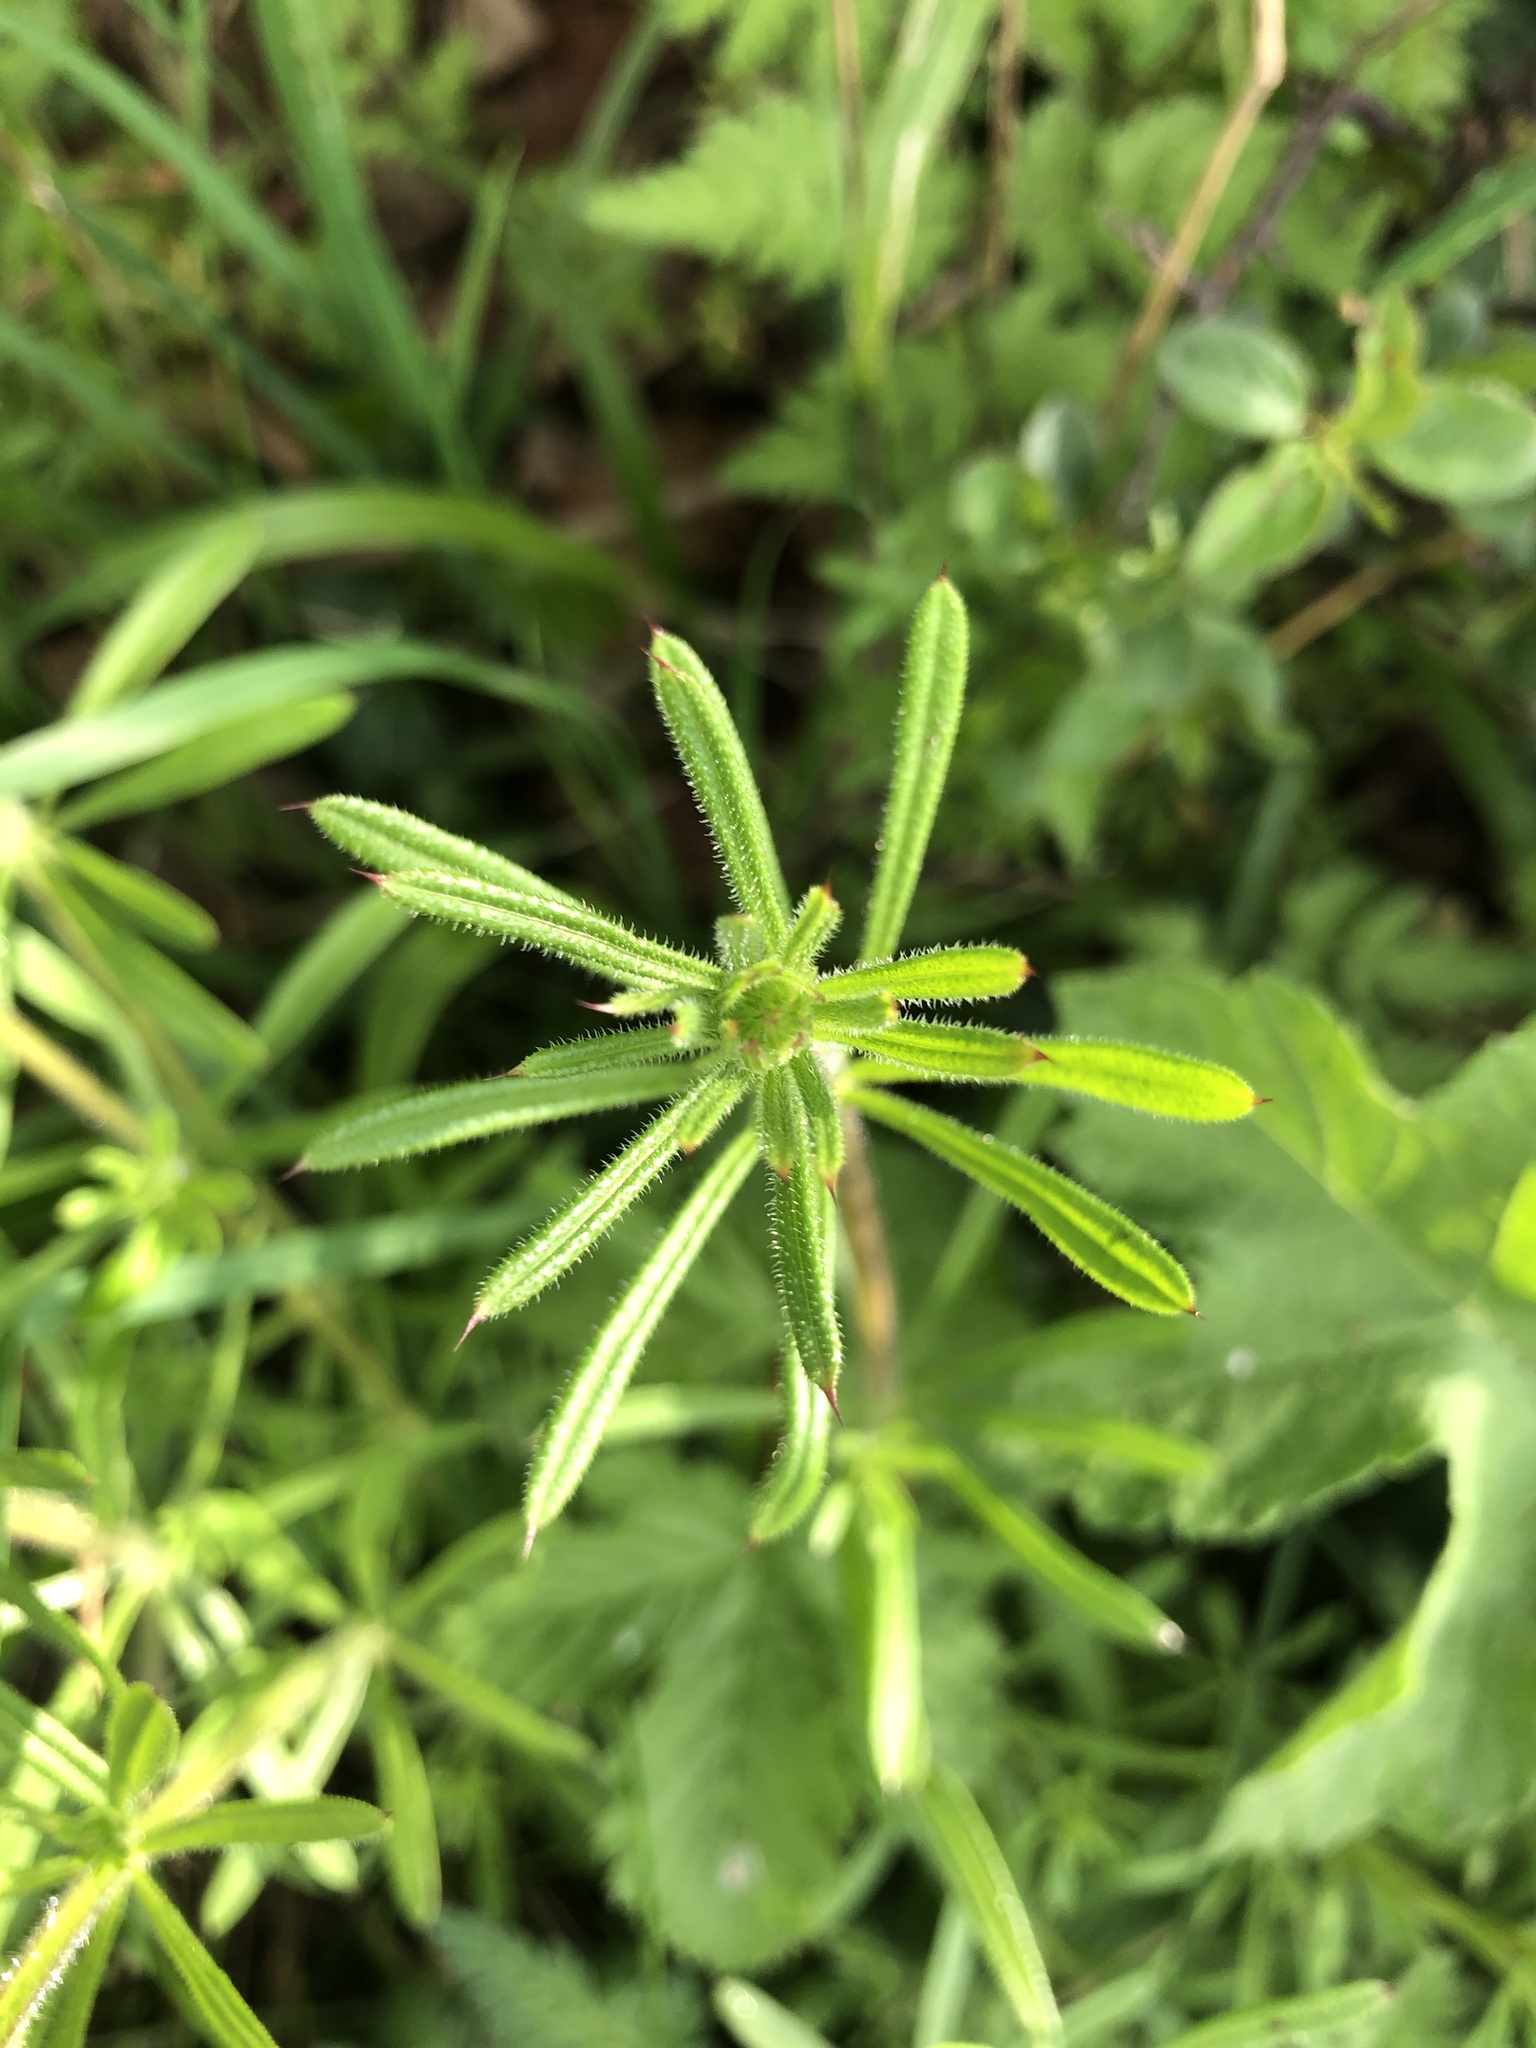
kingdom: Plantae
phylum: Tracheophyta
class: Magnoliopsida
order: Gentianales
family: Rubiaceae
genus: Galium
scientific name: Galium aparine
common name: Cleavers
